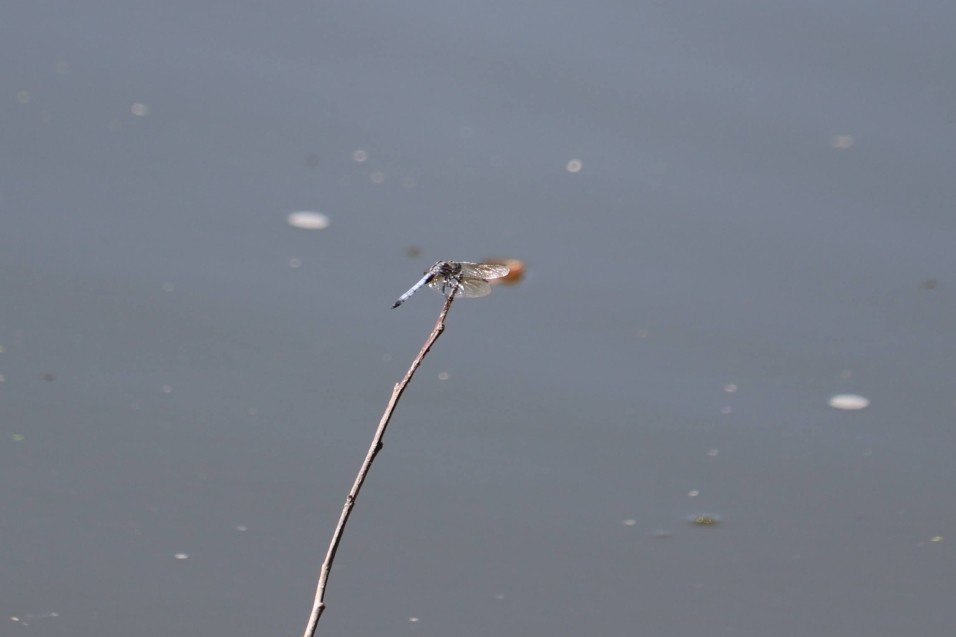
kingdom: Animalia
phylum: Arthropoda
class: Insecta
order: Odonata
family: Libellulidae
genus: Pachydiplax
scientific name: Pachydiplax longipennis
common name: Blue dasher
